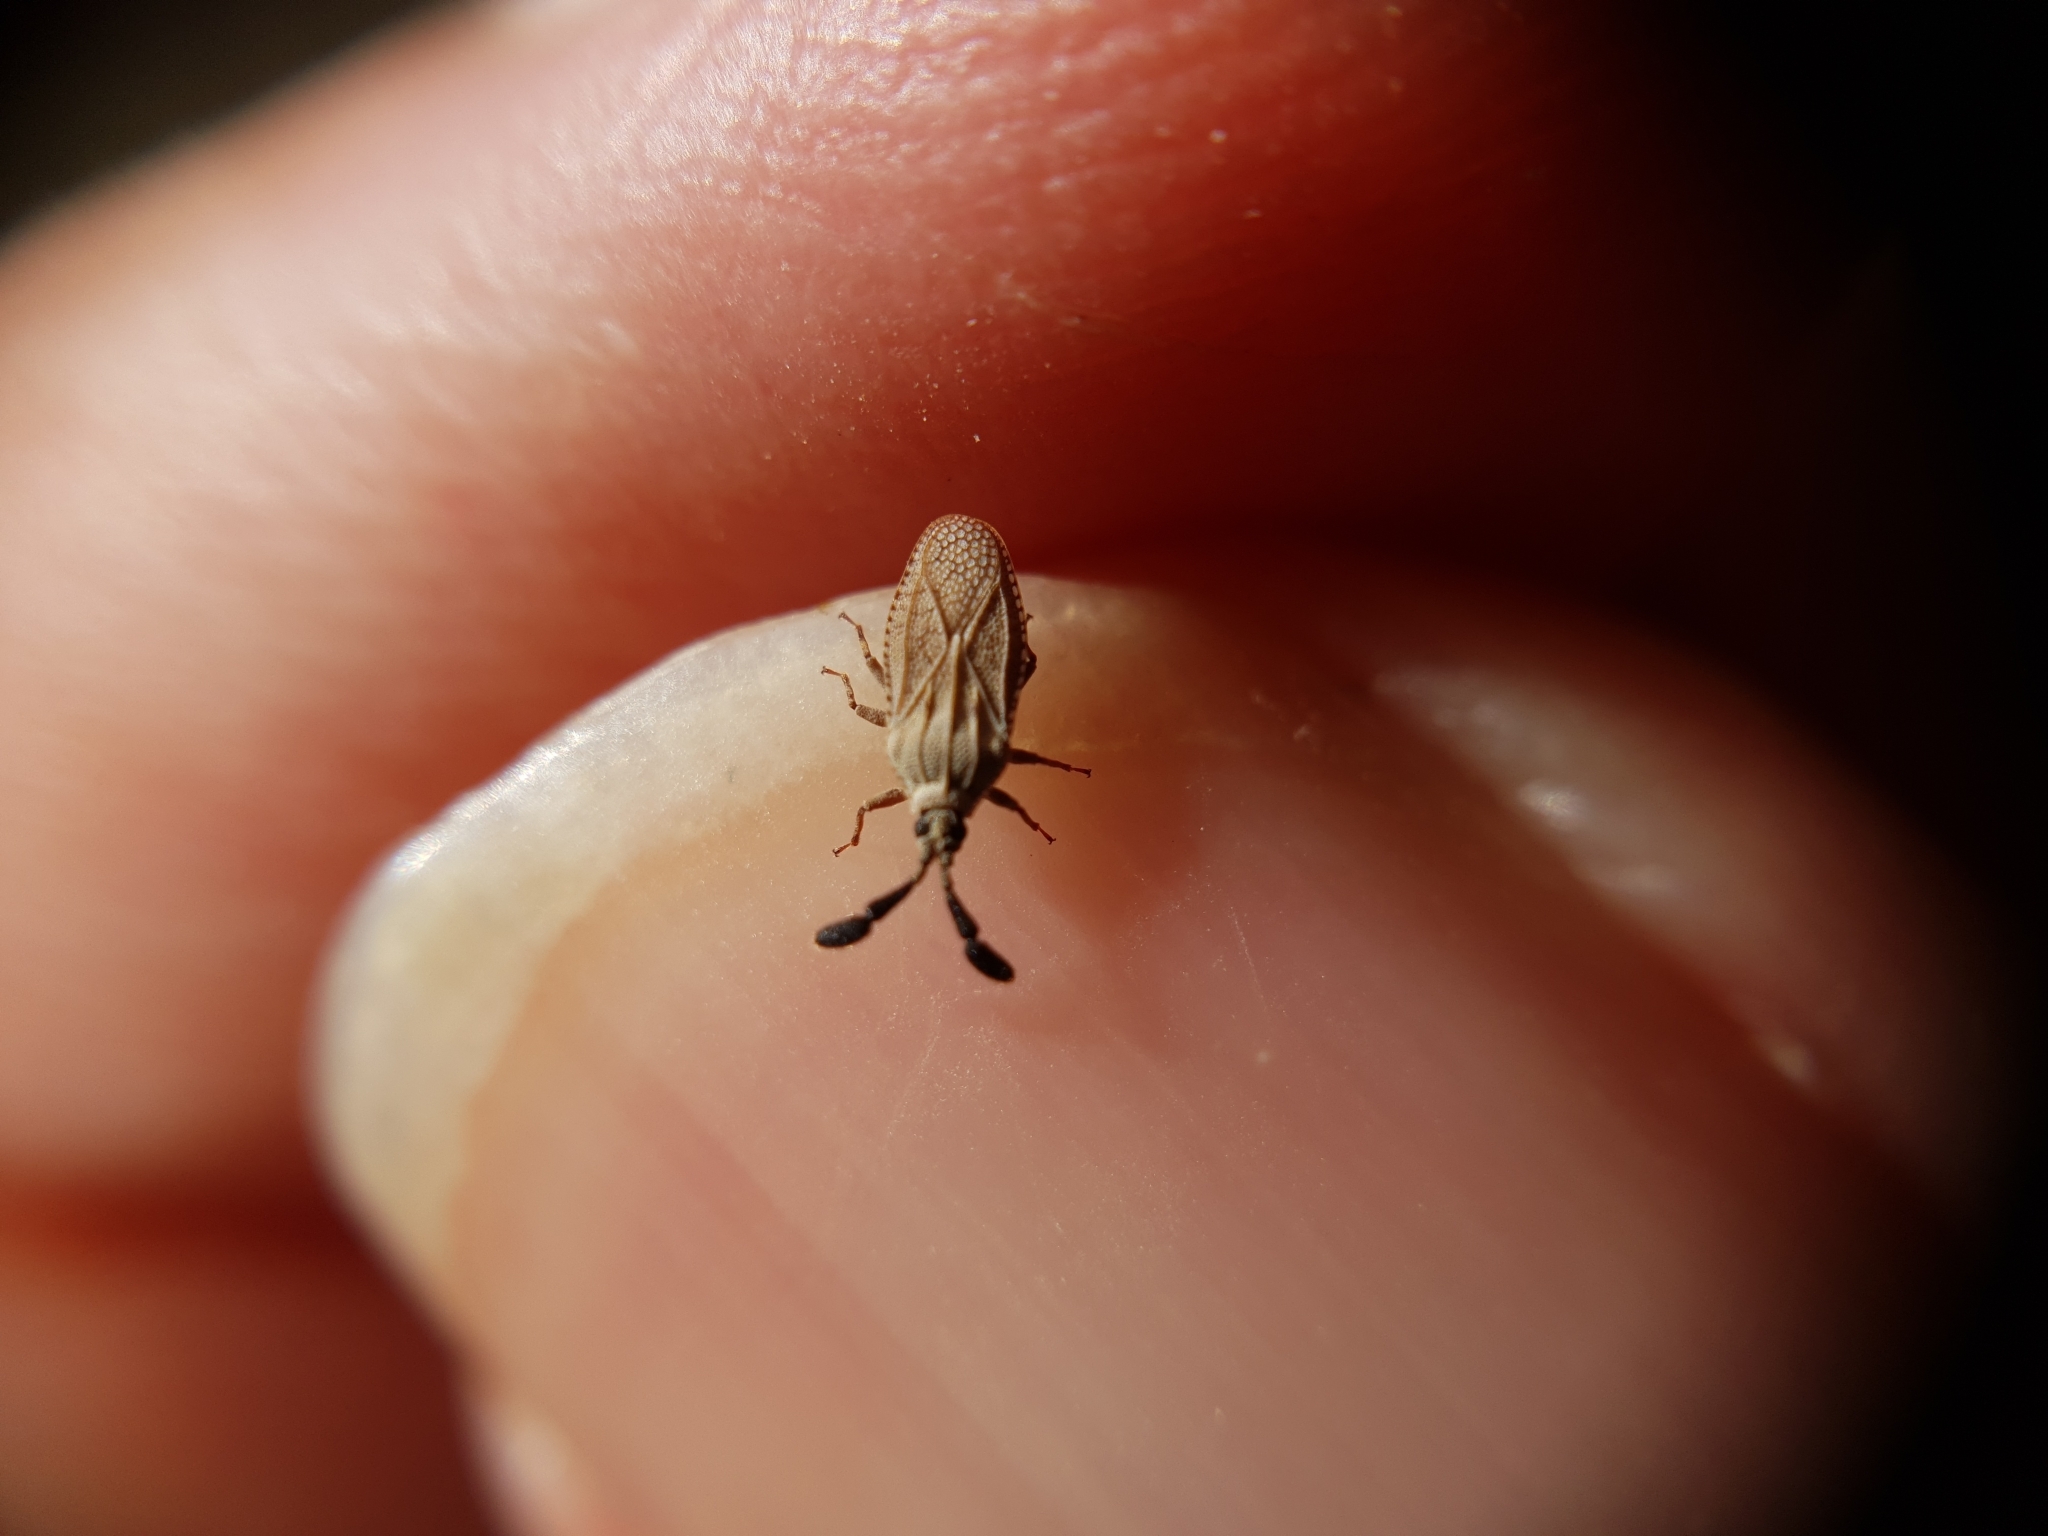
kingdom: Animalia
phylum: Arthropoda
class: Insecta
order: Hemiptera
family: Tingidae
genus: Copium
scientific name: Copium teucrii
